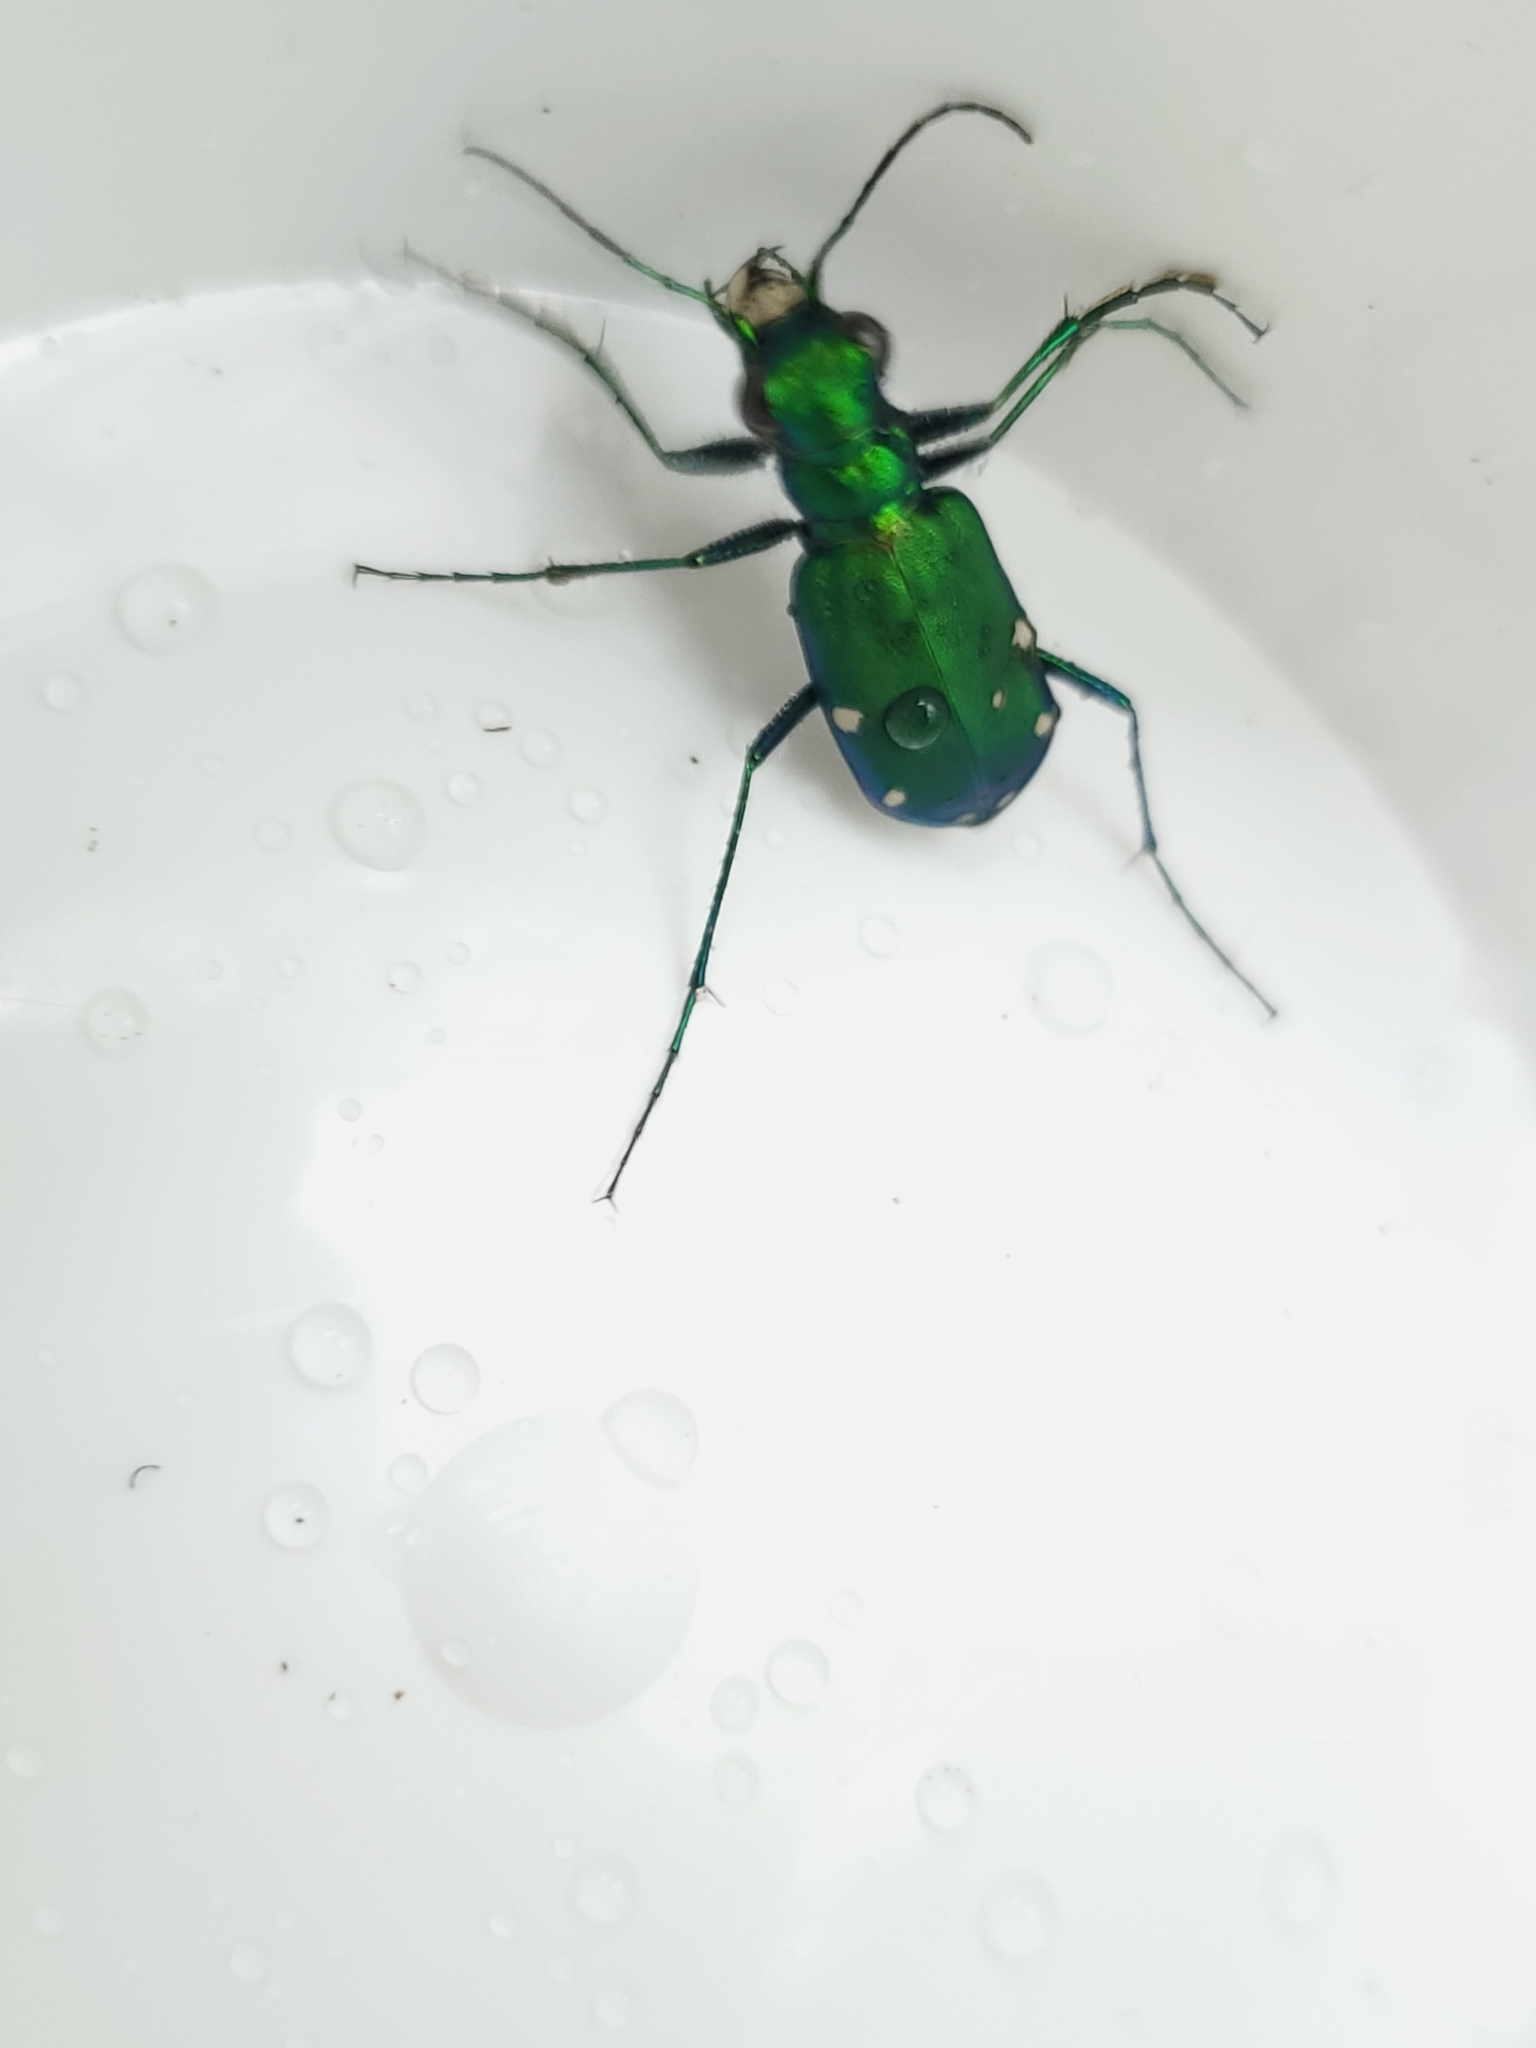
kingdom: Animalia
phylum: Arthropoda
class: Insecta
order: Coleoptera
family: Carabidae
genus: Cicindela
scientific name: Cicindela sexguttata
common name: Six-spotted tiger beetle
